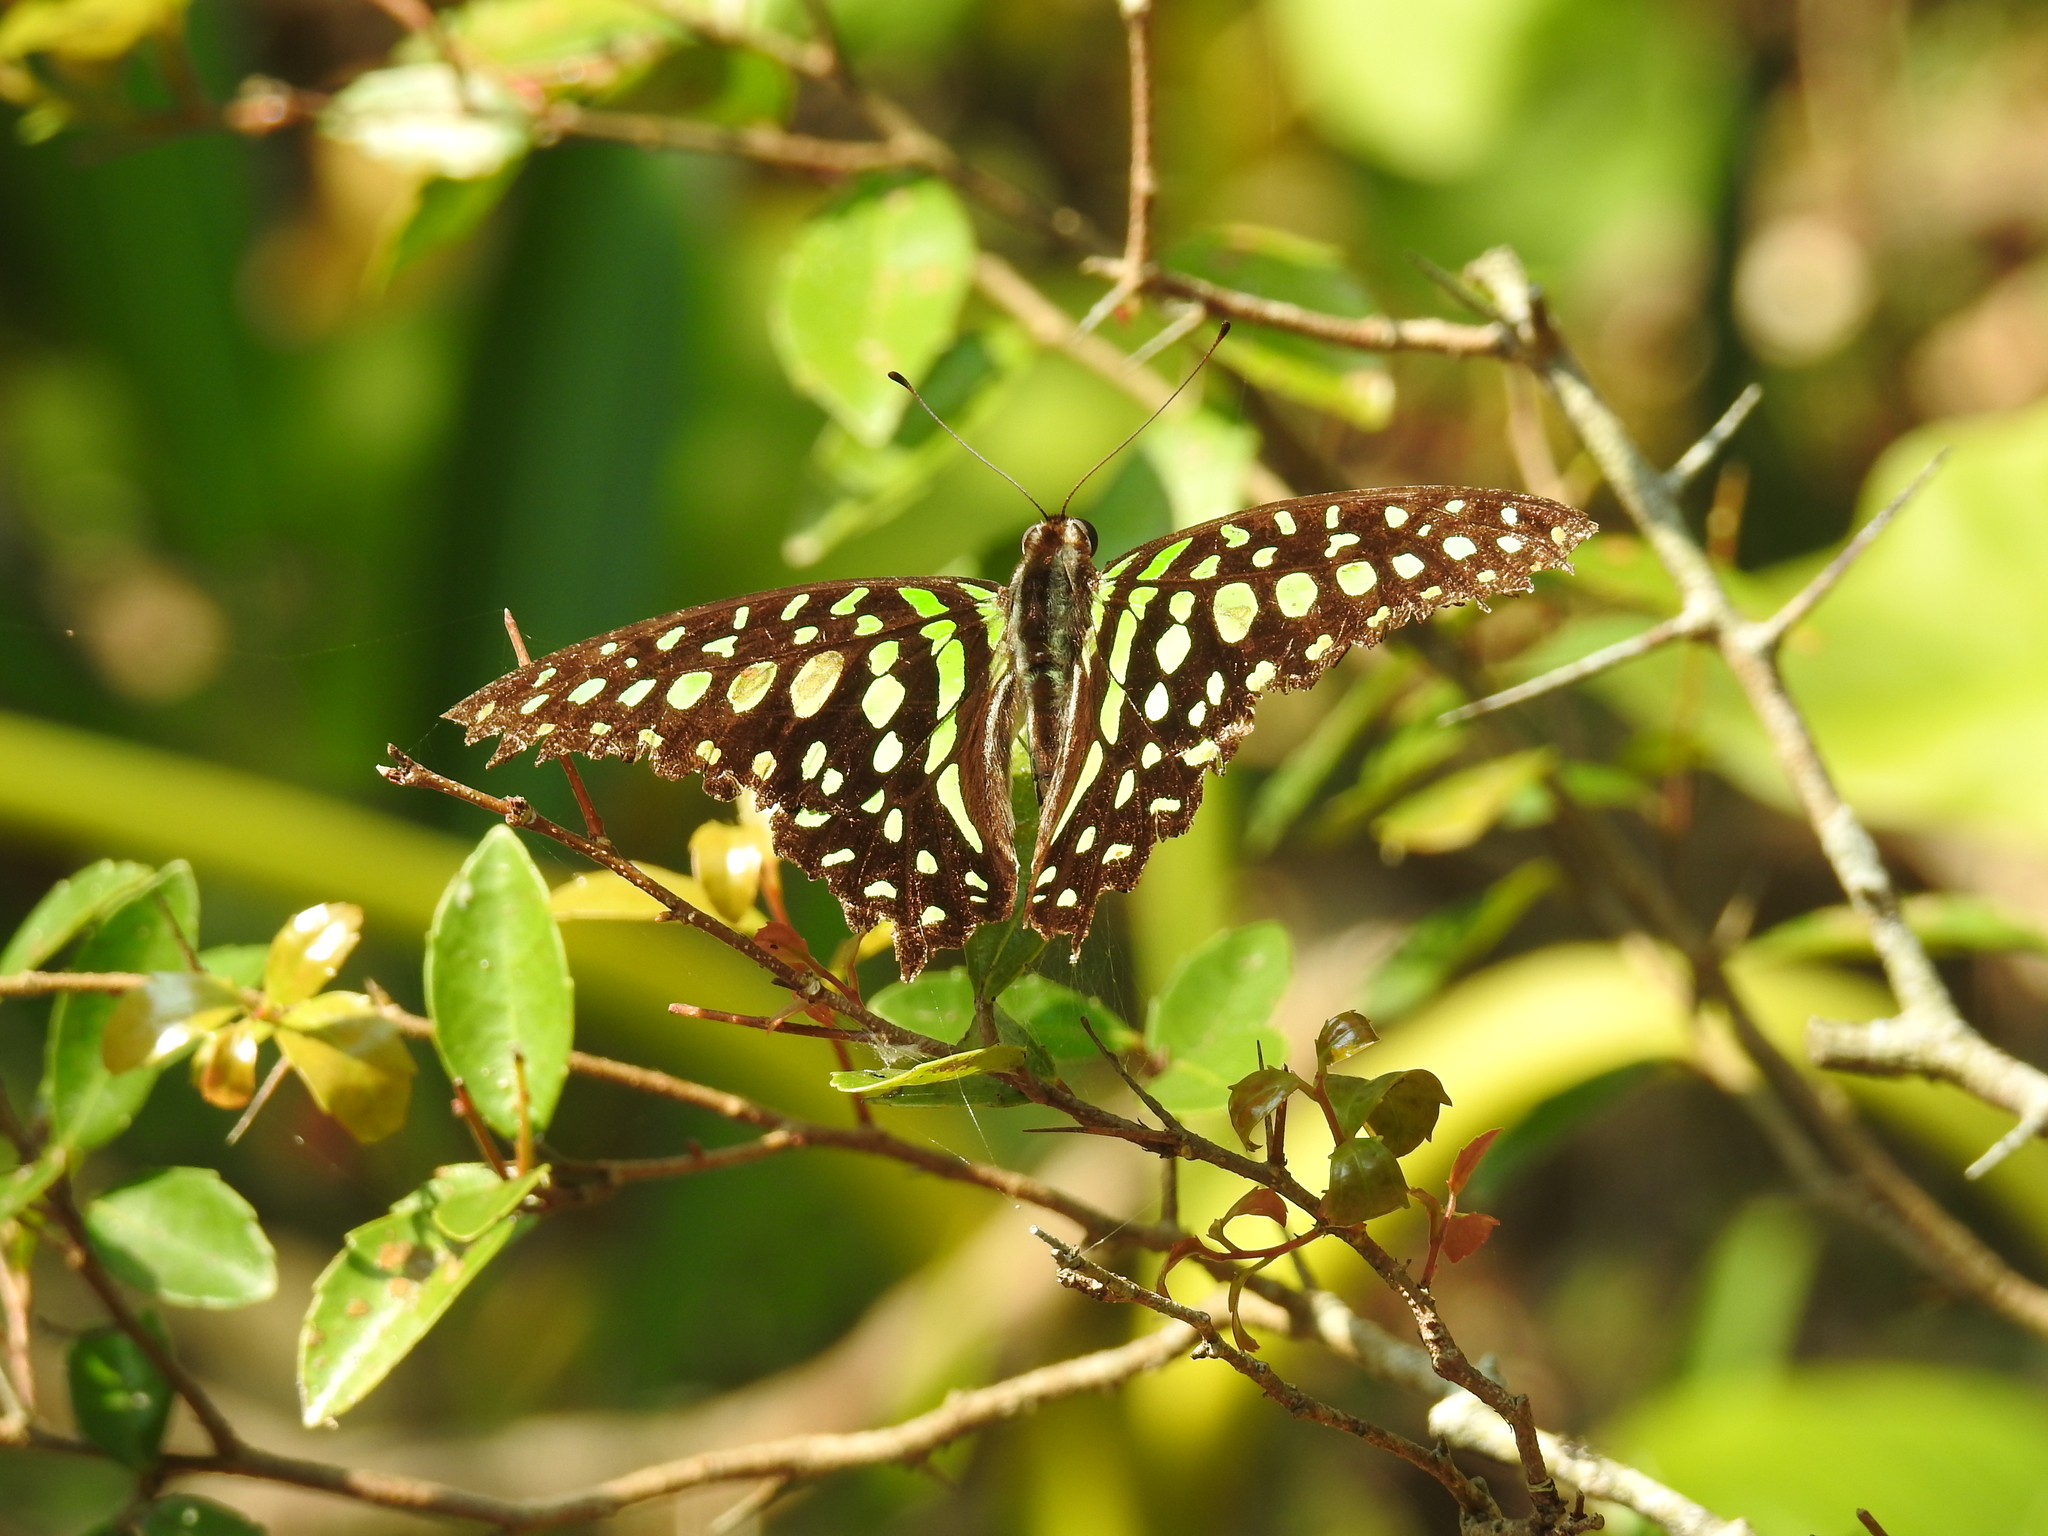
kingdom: Animalia
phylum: Arthropoda
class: Insecta
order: Lepidoptera
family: Papilionidae
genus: Graphium
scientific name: Graphium agamemnon
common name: Tailed jay
